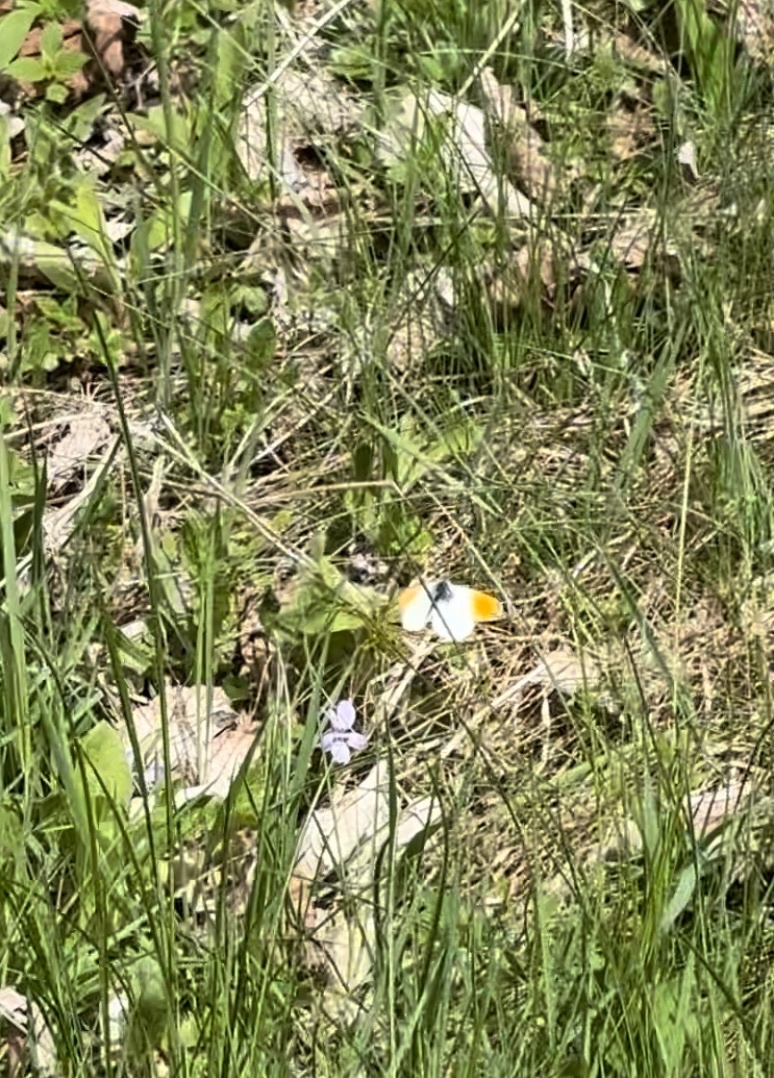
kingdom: Animalia
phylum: Arthropoda
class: Insecta
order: Lepidoptera
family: Pieridae
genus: Anthocharis
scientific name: Anthocharis cardamines
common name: Orange-tip
